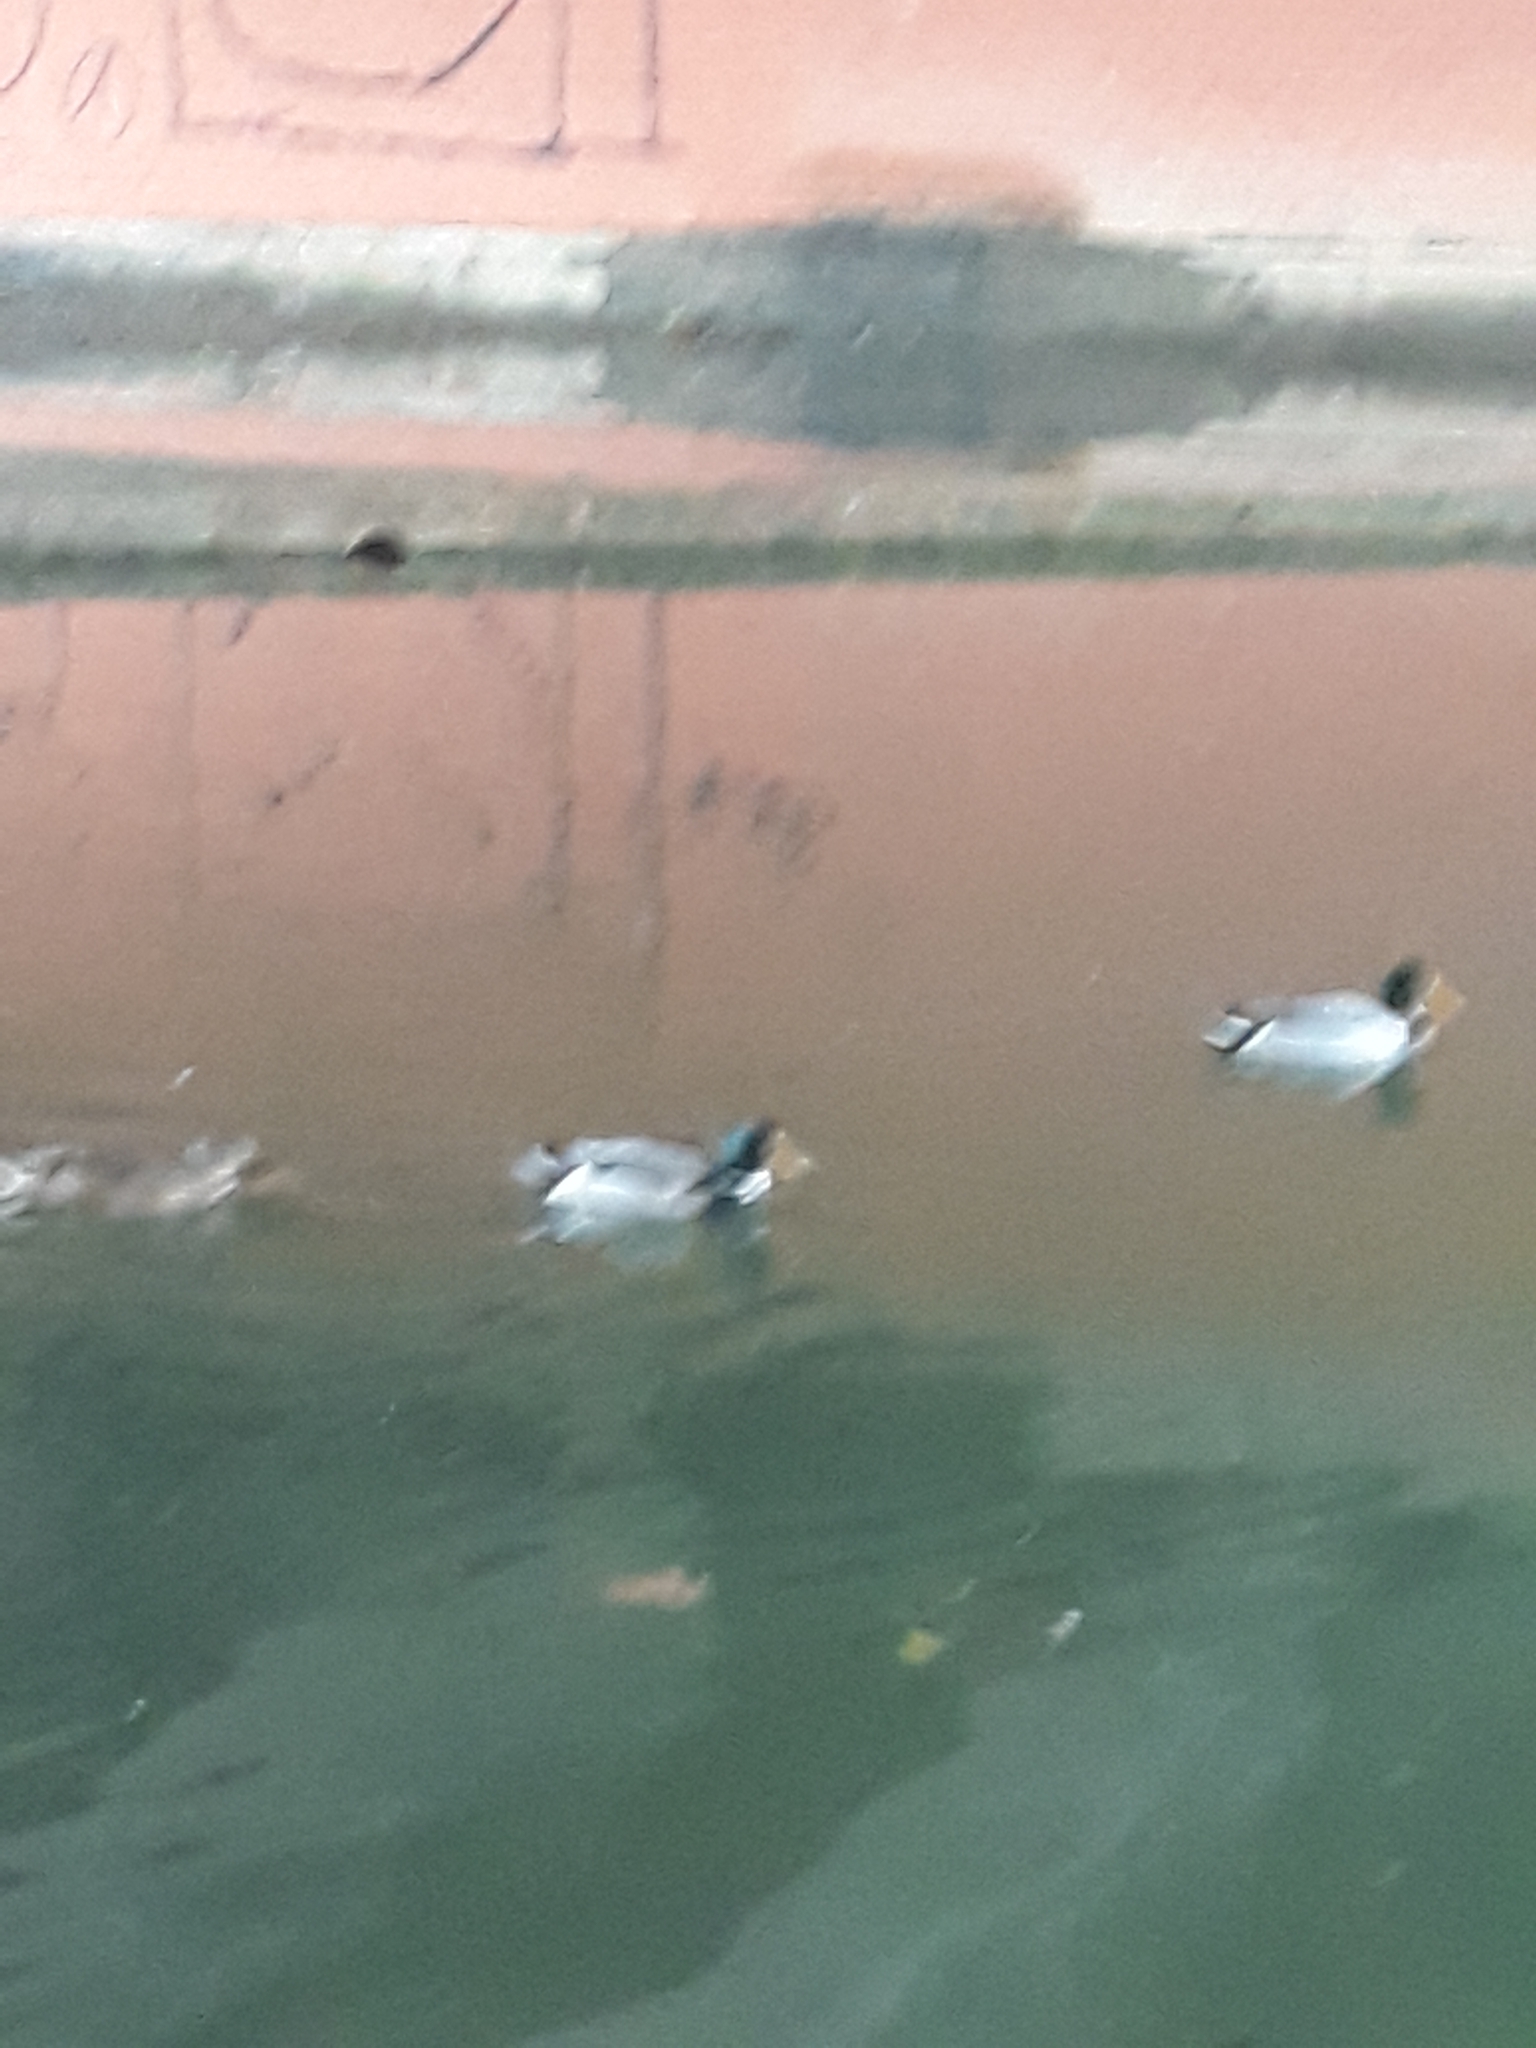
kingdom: Animalia
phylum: Chordata
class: Aves
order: Anseriformes
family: Anatidae
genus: Anas
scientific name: Anas platyrhynchos
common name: Mallard
